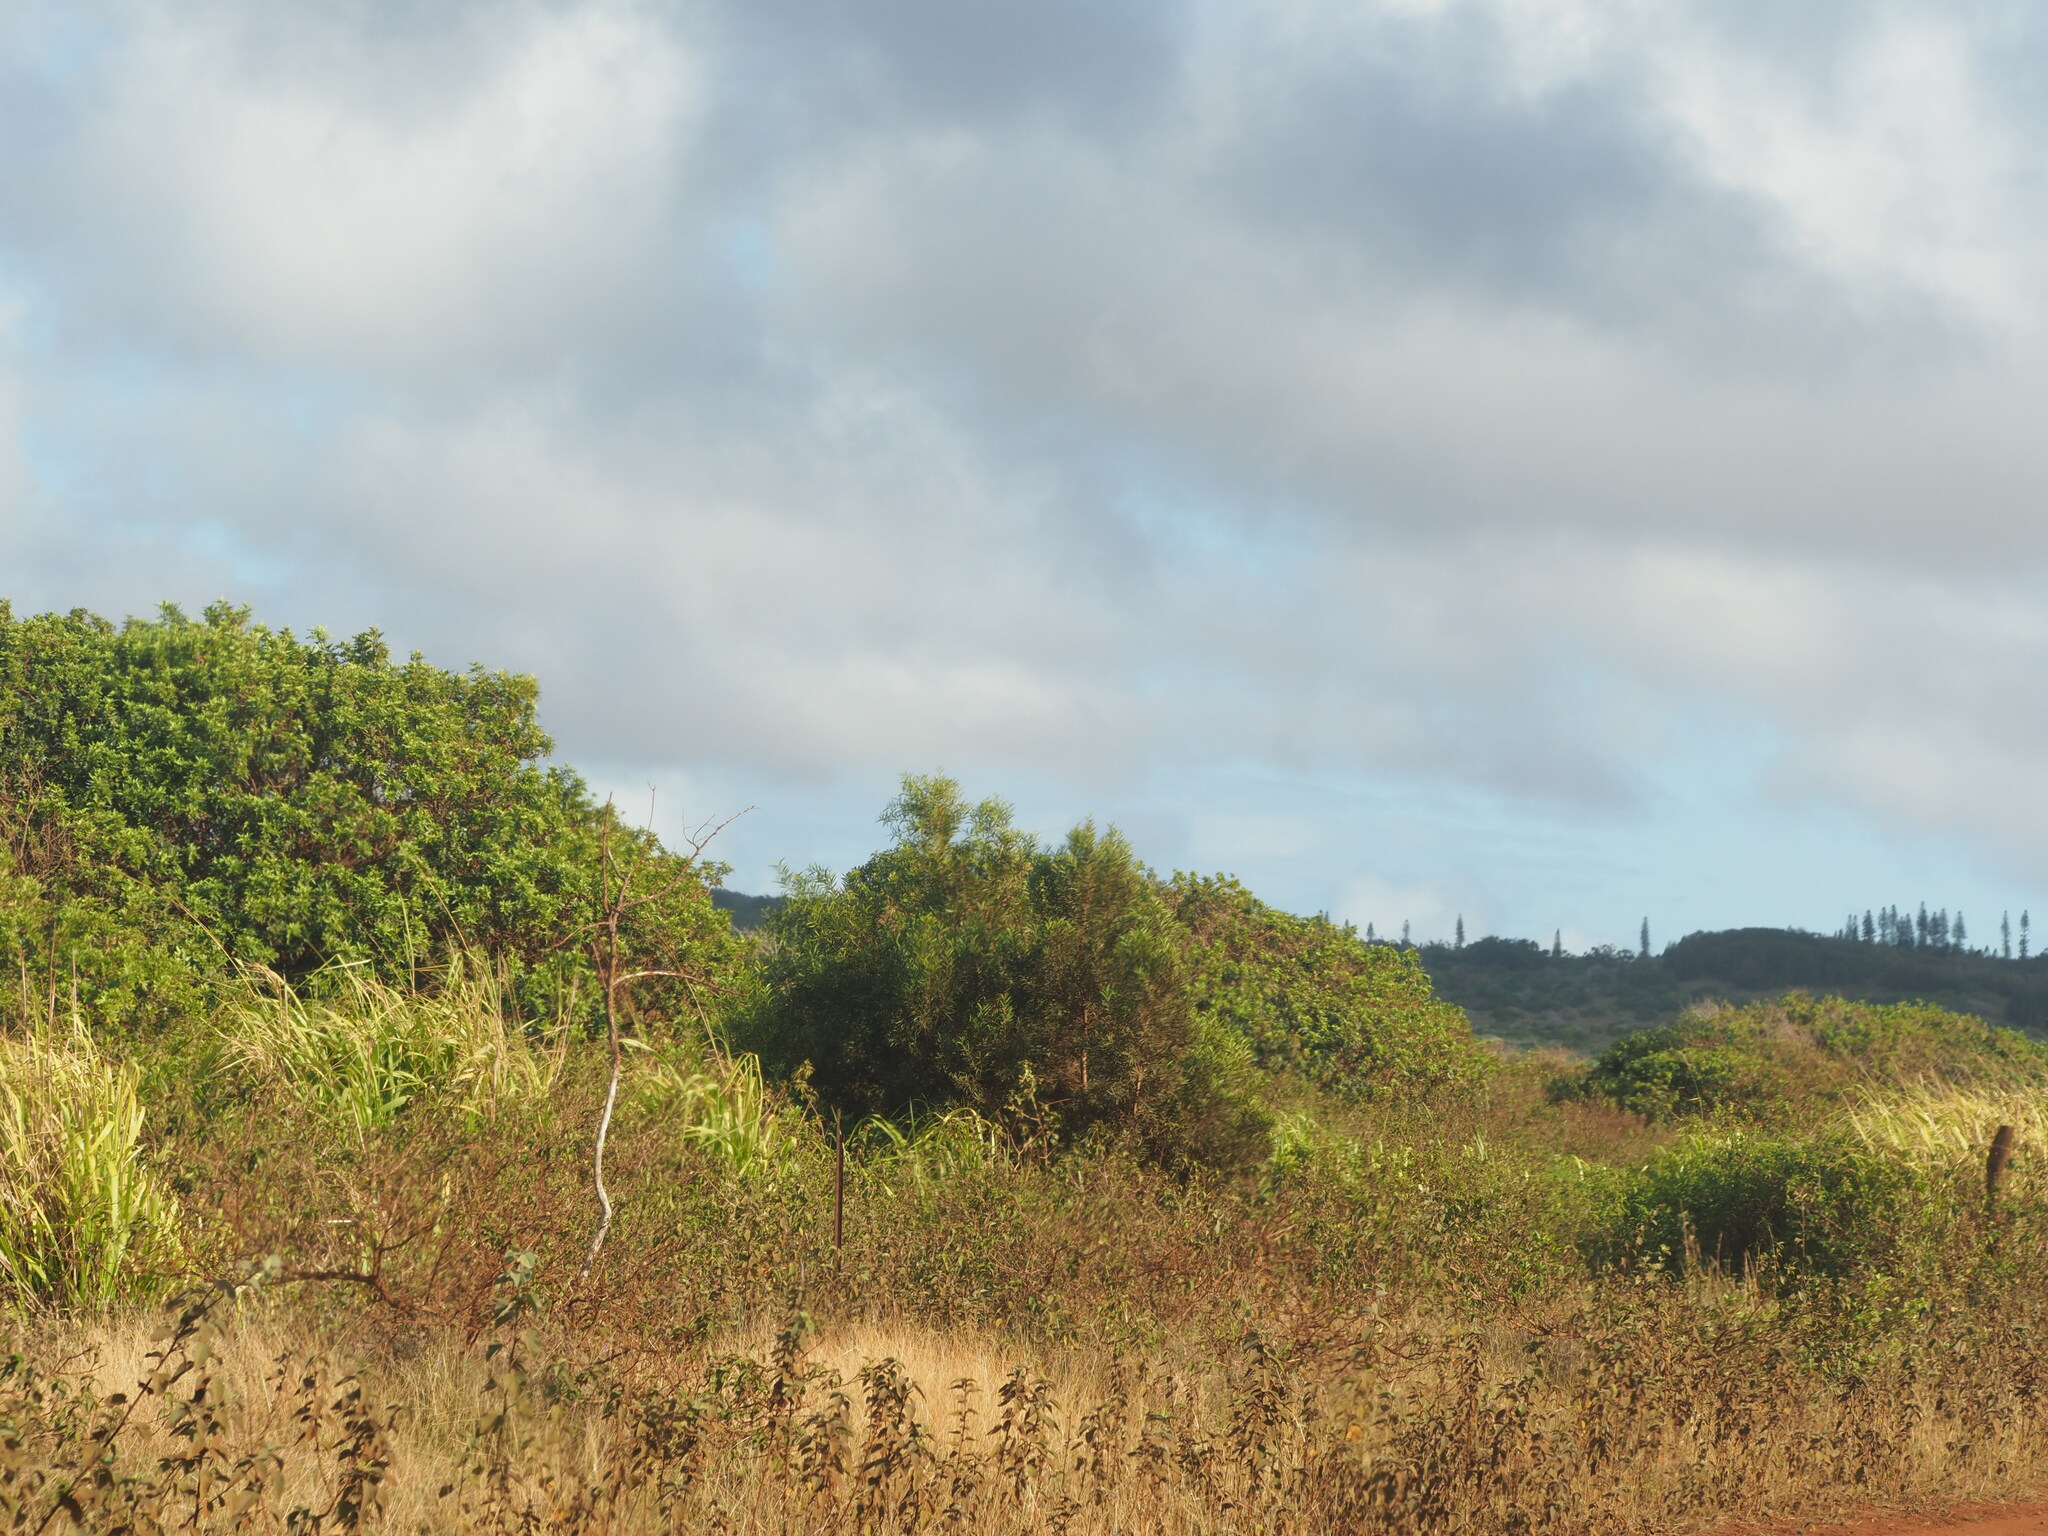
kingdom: Plantae
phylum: Tracheophyta
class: Magnoliopsida
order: Fabales
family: Fabaceae
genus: Acacia
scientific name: Acacia confusa
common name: Formosan koa
